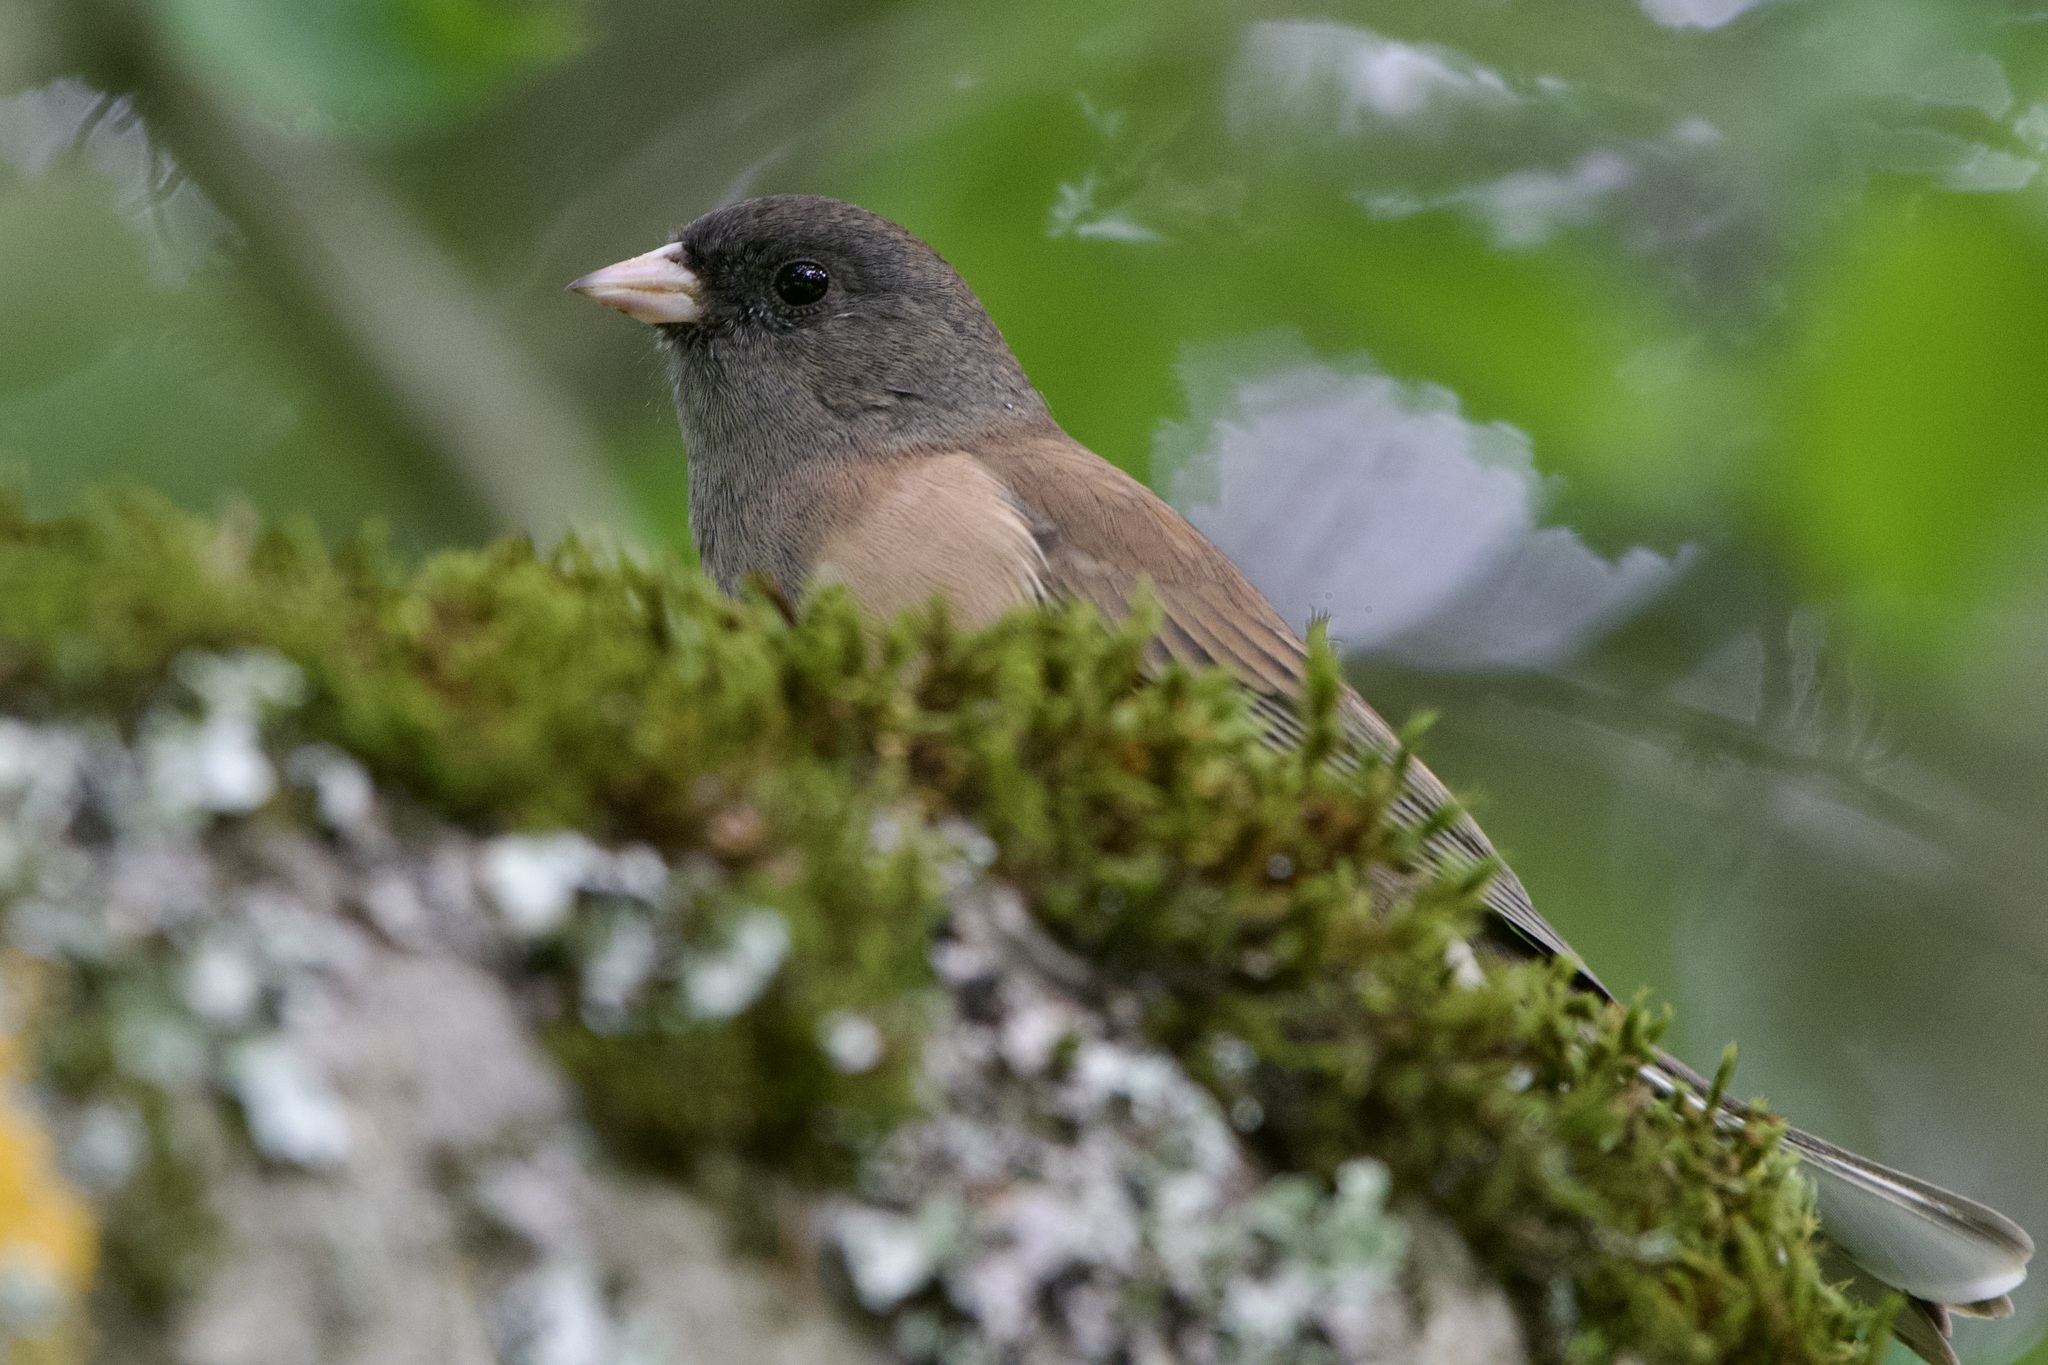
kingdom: Animalia
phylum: Chordata
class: Aves
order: Passeriformes
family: Passerellidae
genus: Junco
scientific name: Junco hyemalis
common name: Dark-eyed junco
